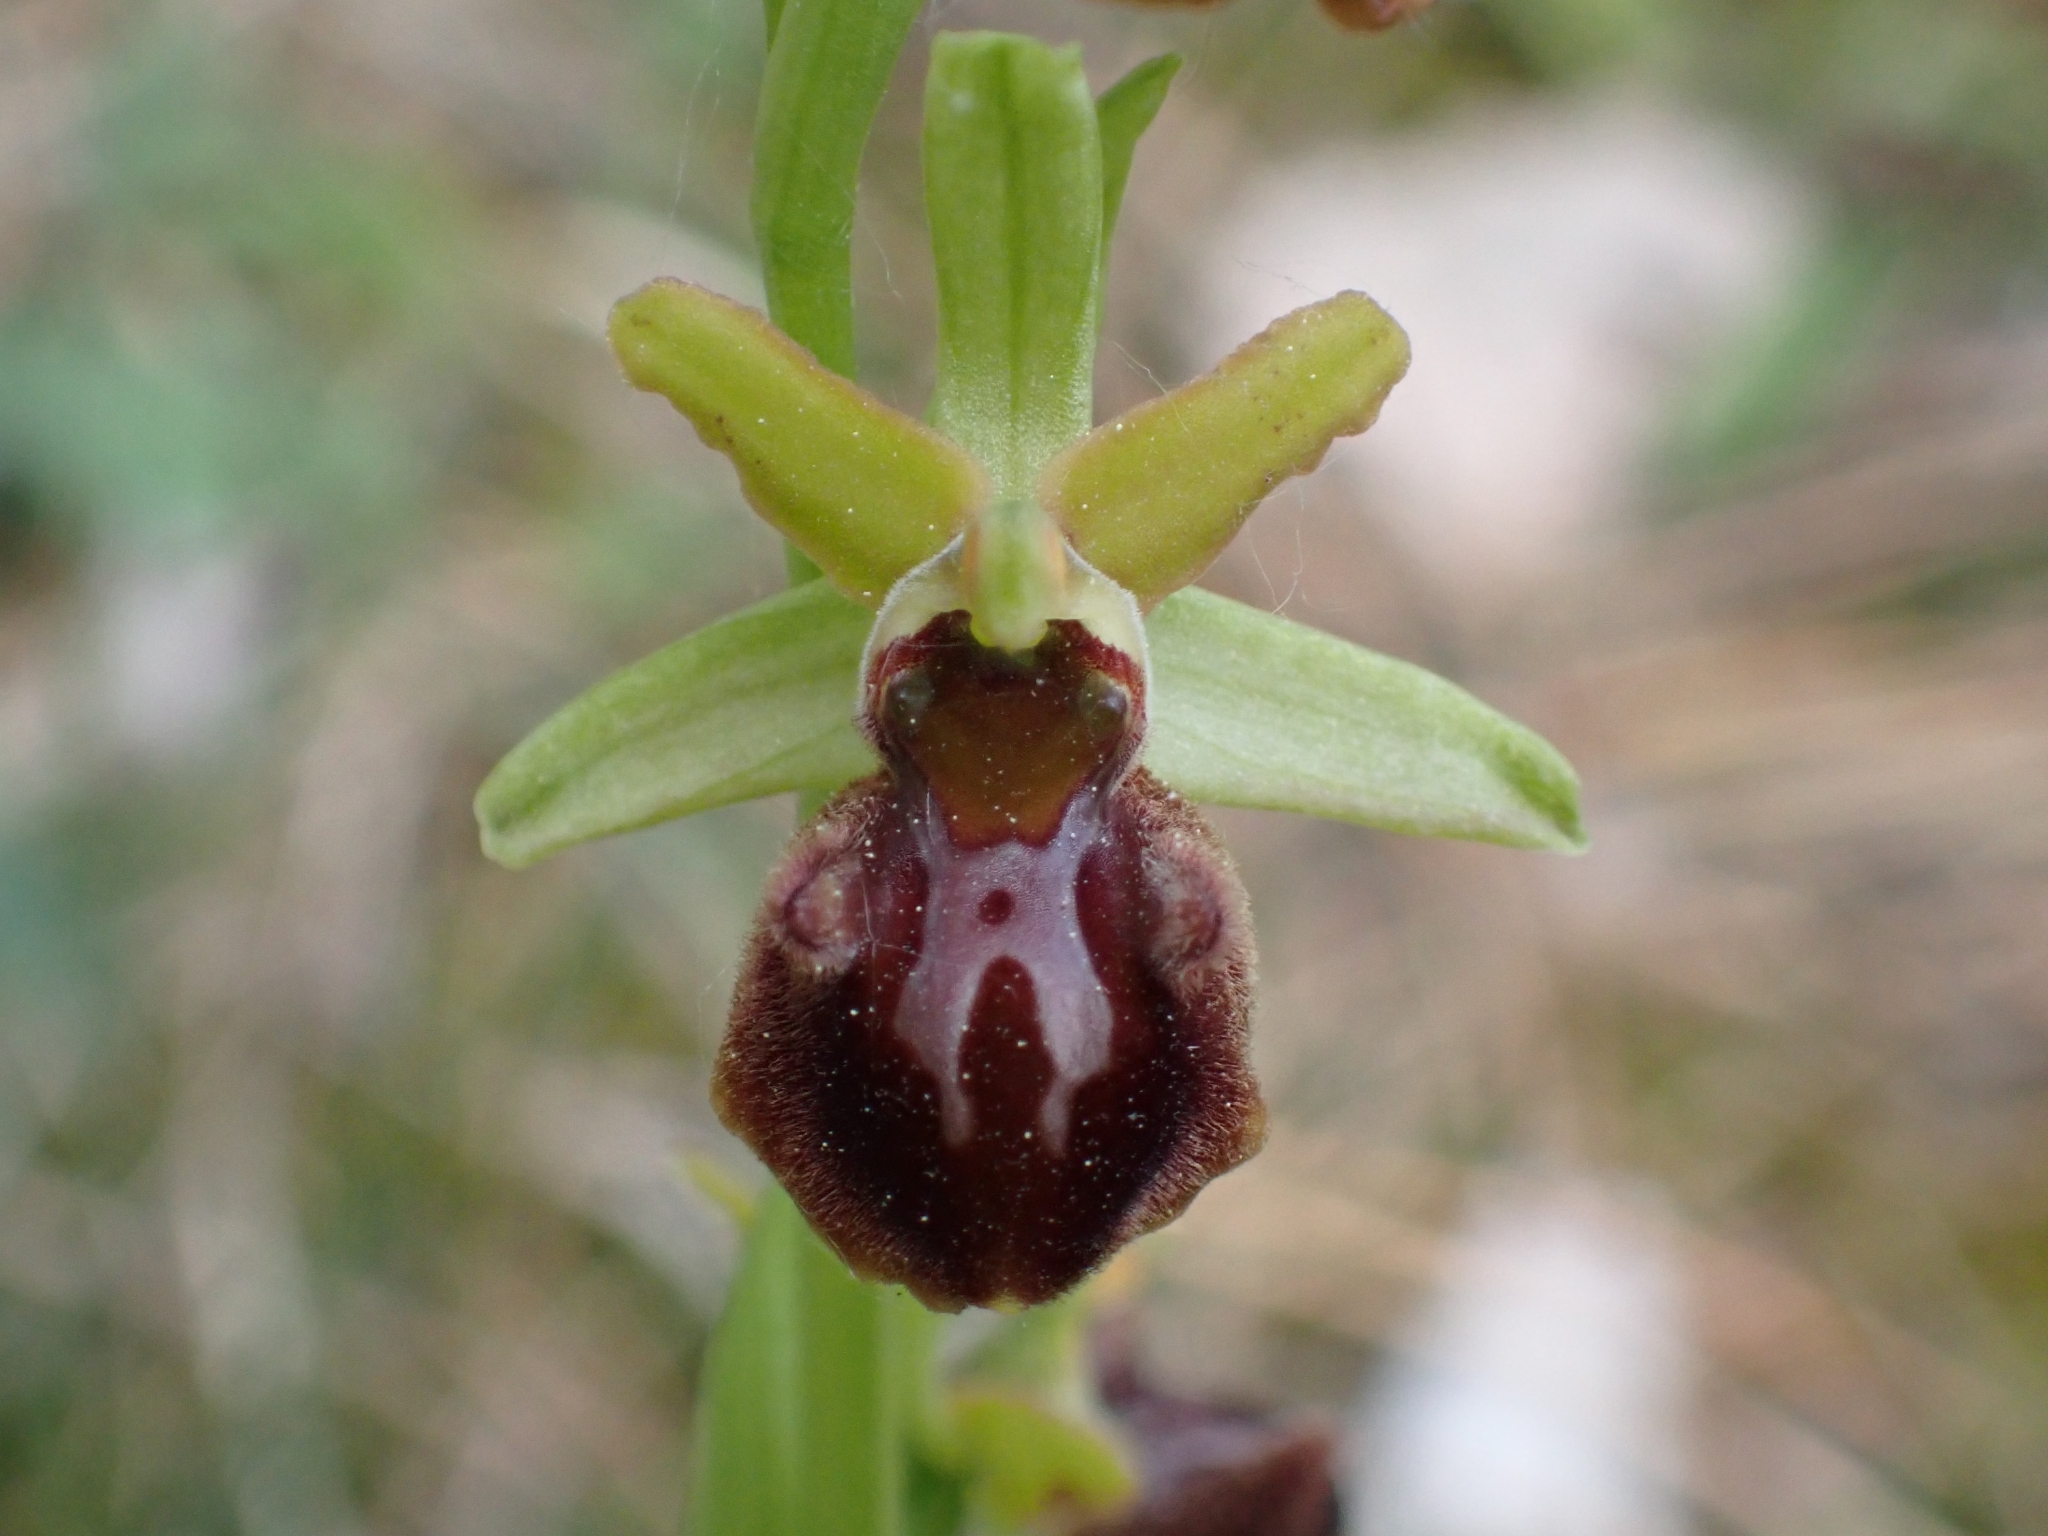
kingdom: Plantae
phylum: Tracheophyta
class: Liliopsida
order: Asparagales
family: Orchidaceae
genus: Ophrys
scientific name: Ophrys sphegodes
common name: Early spider-orchid
